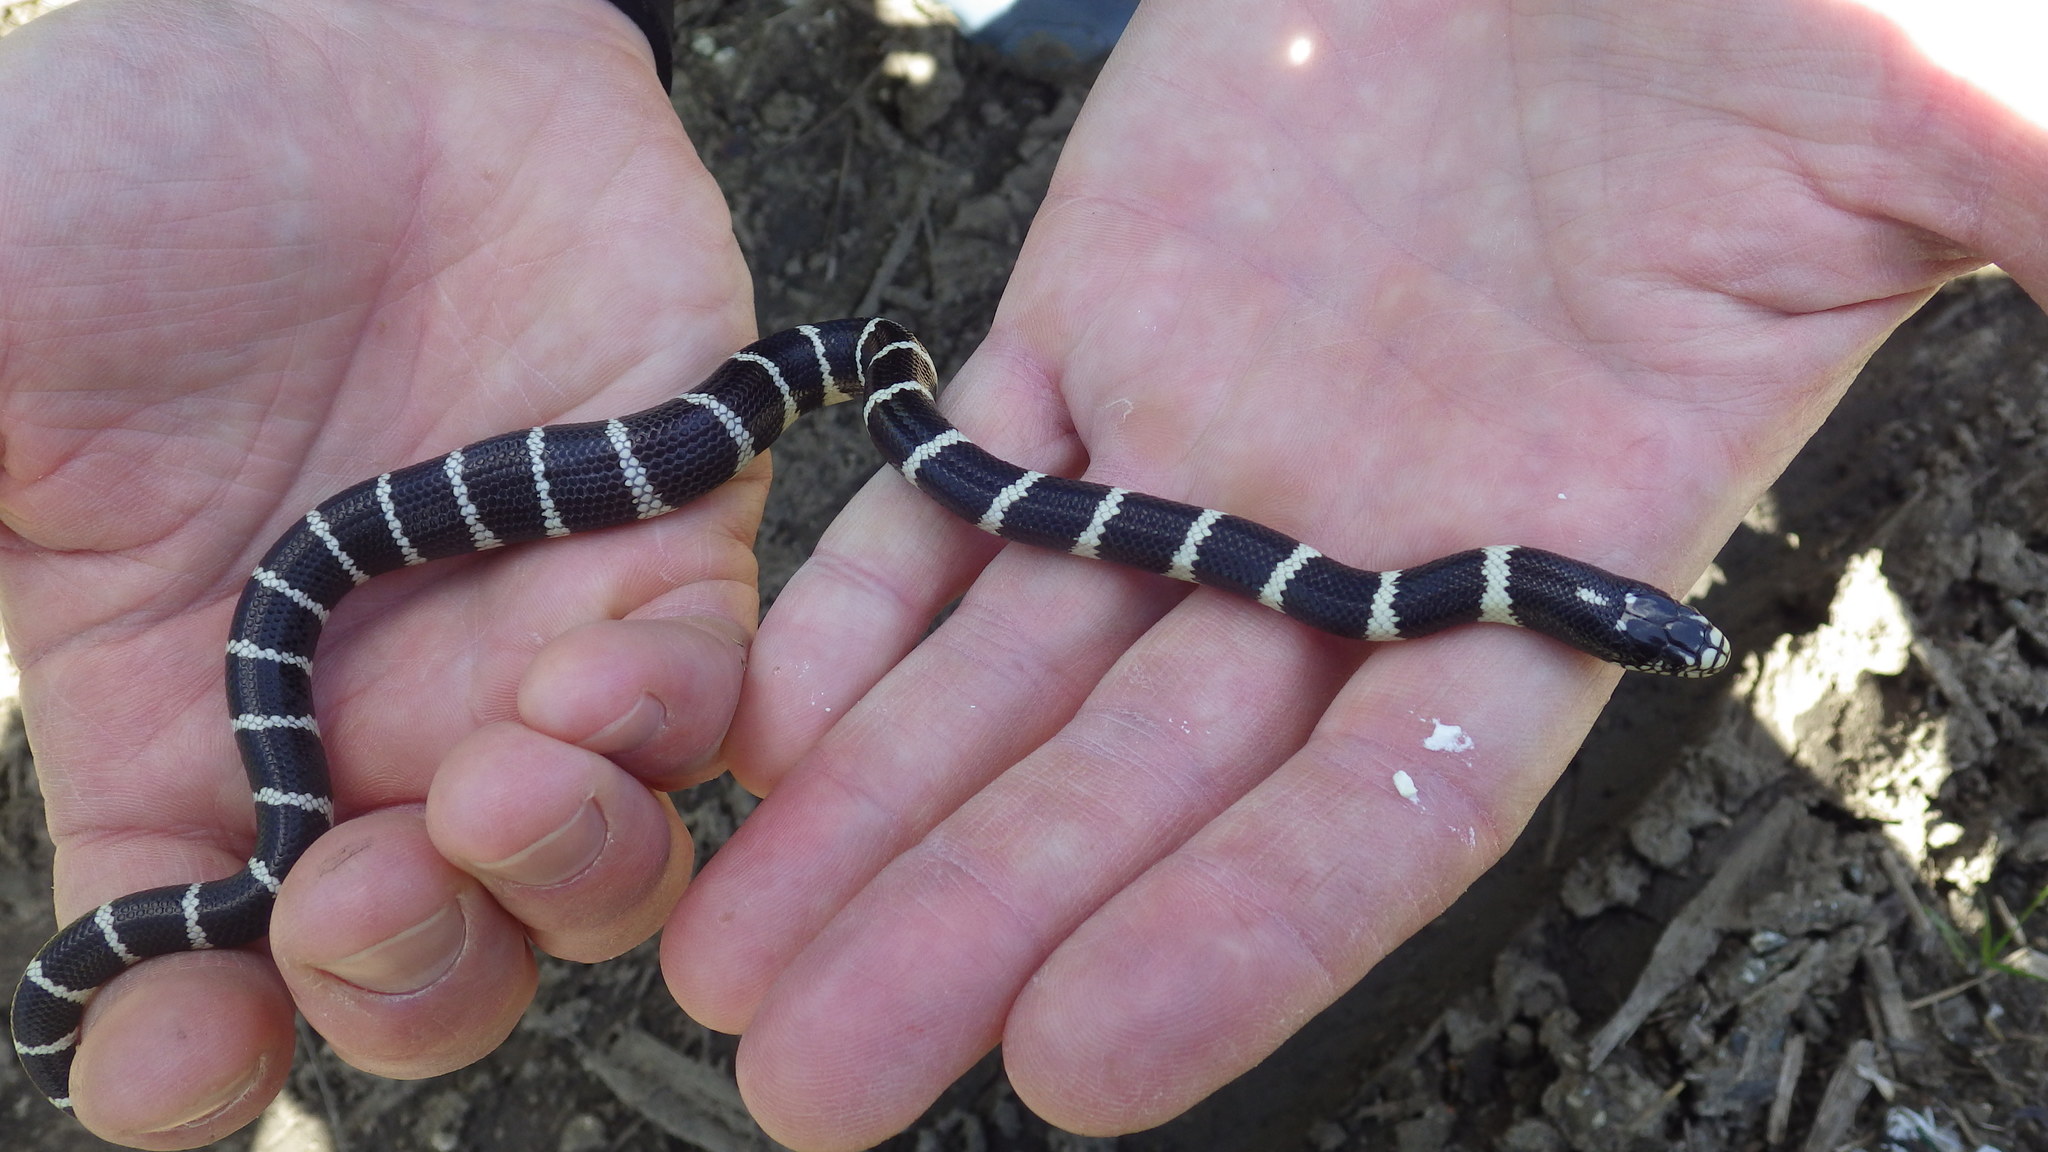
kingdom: Animalia
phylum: Chordata
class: Squamata
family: Colubridae
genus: Lampropeltis
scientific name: Lampropeltis californiae
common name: California kingsnake
